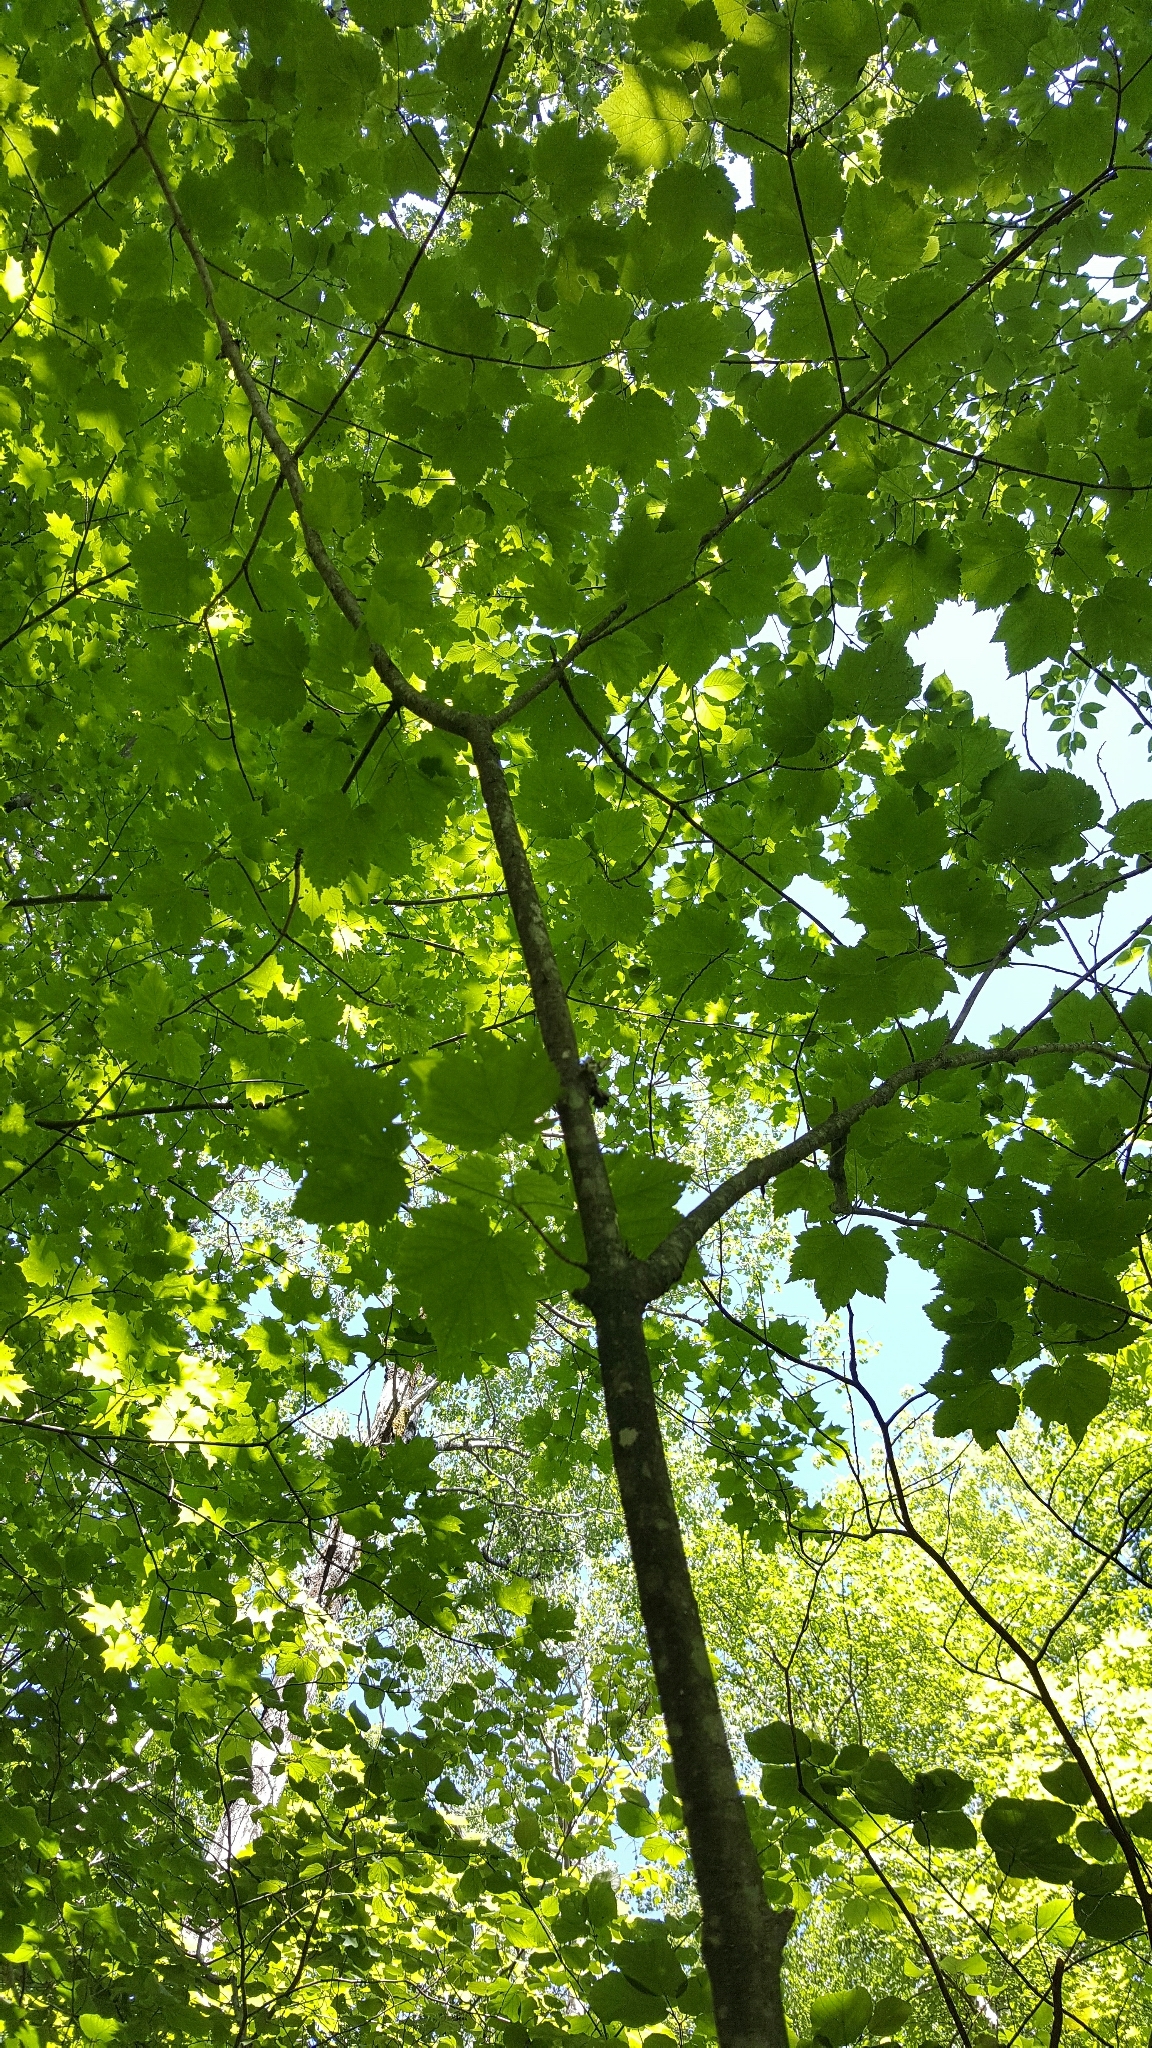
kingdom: Plantae
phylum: Tracheophyta
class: Magnoliopsida
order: Sapindales
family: Sapindaceae
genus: Acer
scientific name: Acer spicatum
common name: Mountain maple
